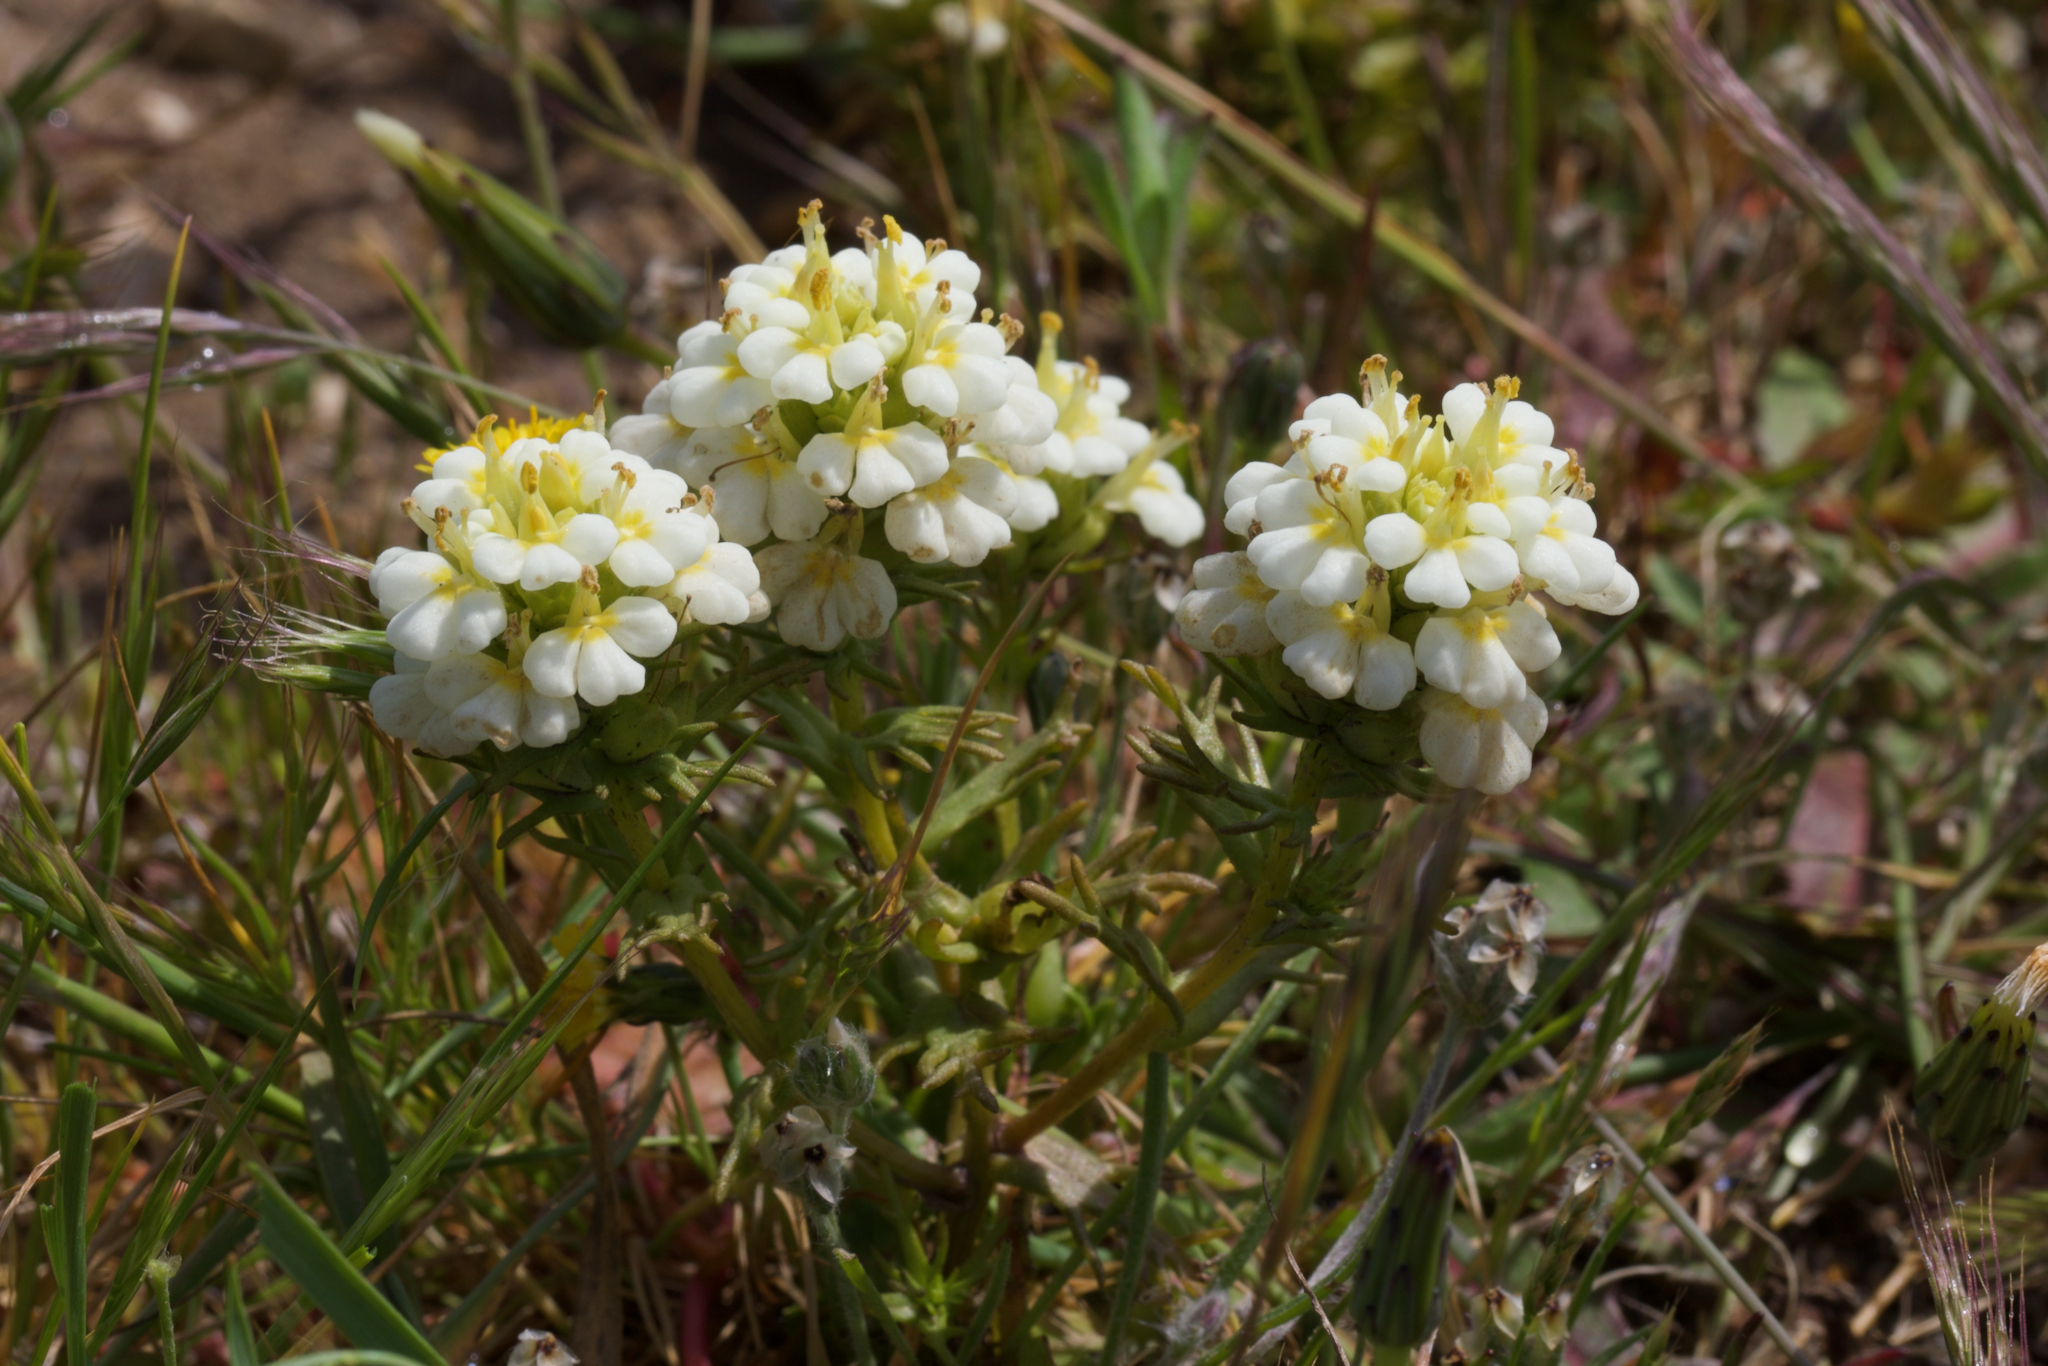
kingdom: Plantae
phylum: Tracheophyta
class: Magnoliopsida
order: Lamiales
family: Orobanchaceae
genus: Triphysaria
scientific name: Triphysaria floribunda
